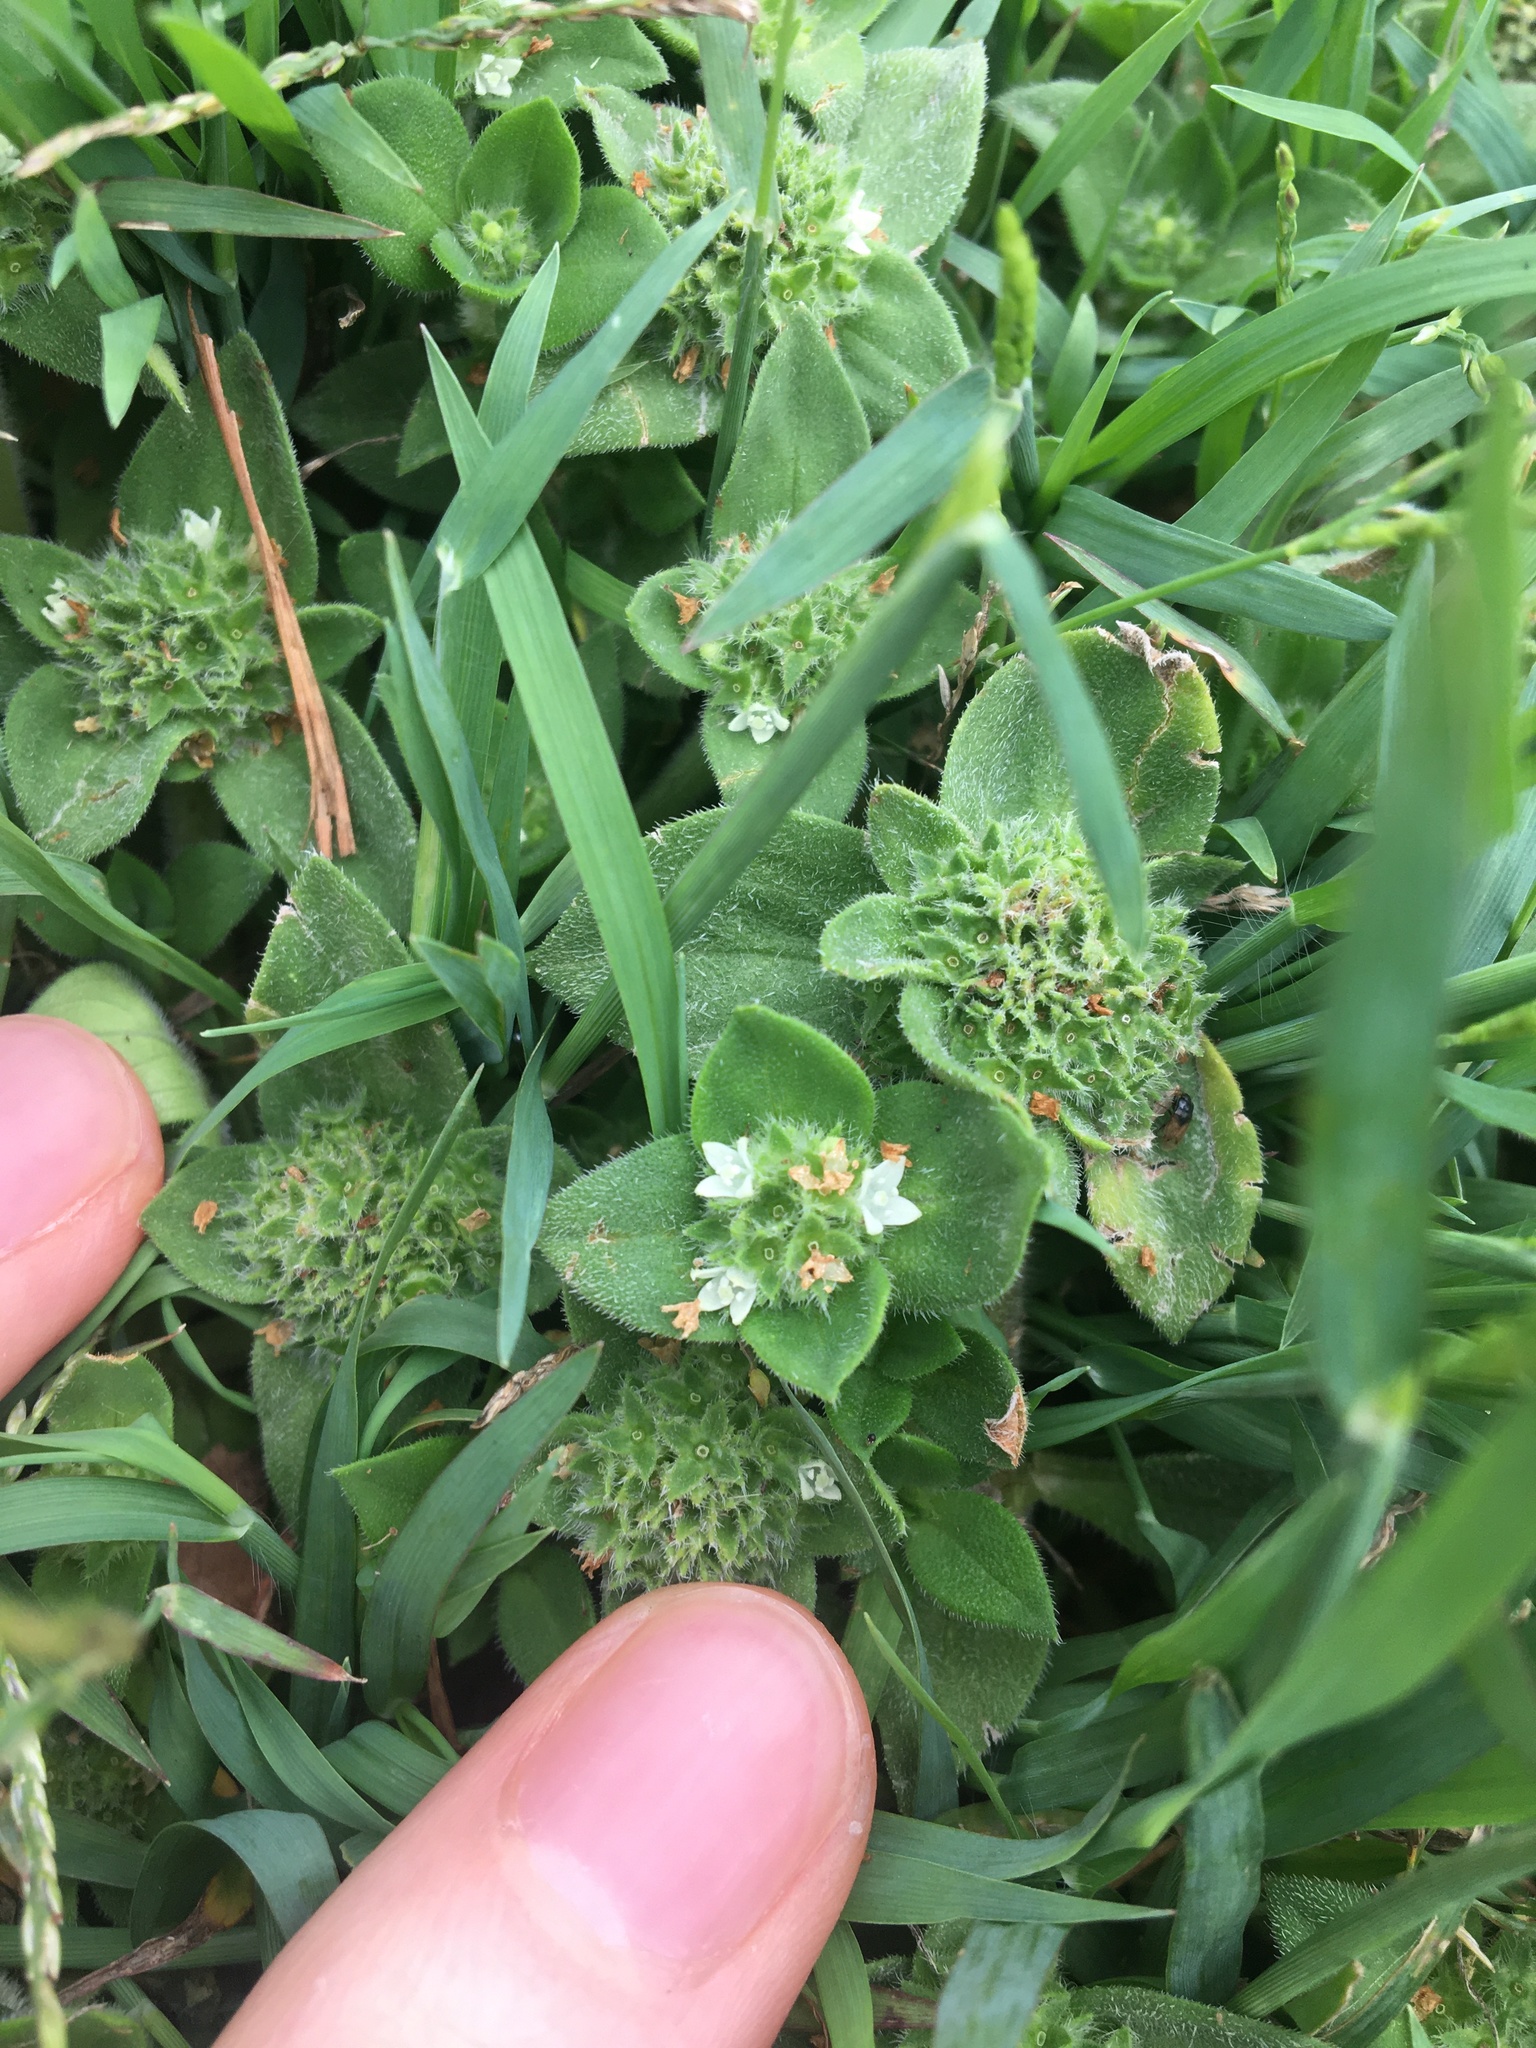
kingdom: Plantae
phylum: Tracheophyta
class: Magnoliopsida
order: Gentianales
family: Rubiaceae
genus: Richardia
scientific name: Richardia humistrata
